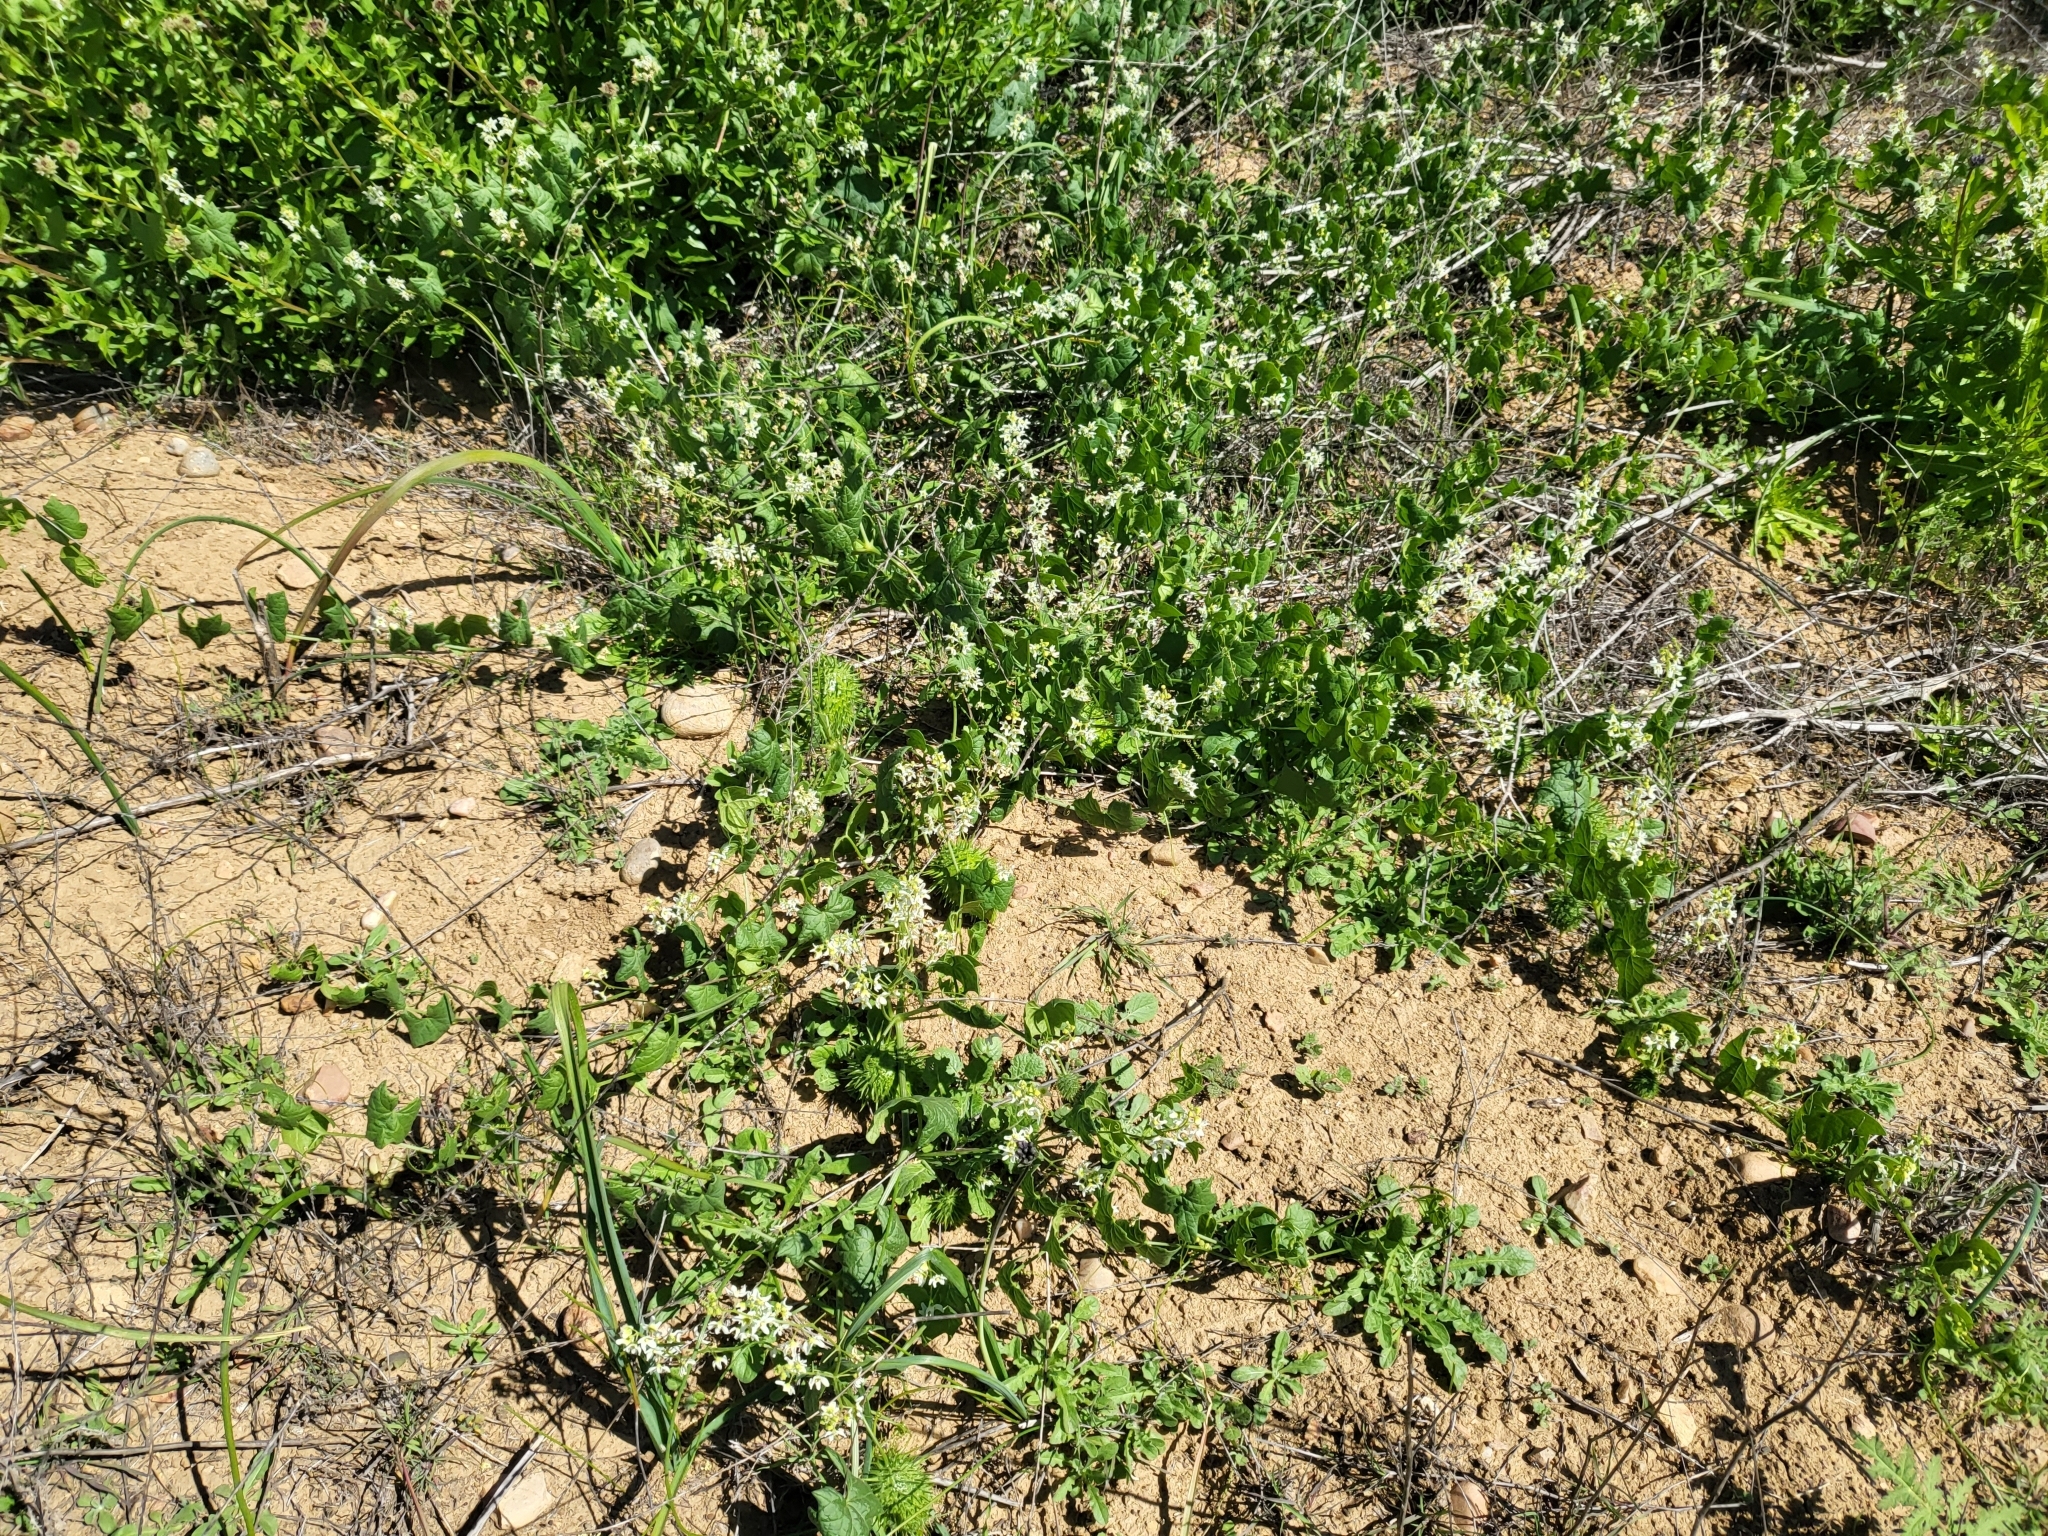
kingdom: Plantae
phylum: Tracheophyta
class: Magnoliopsida
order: Cucurbitales
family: Cucurbitaceae
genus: Marah
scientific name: Marah macrocarpa
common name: Cucamonga manroot
